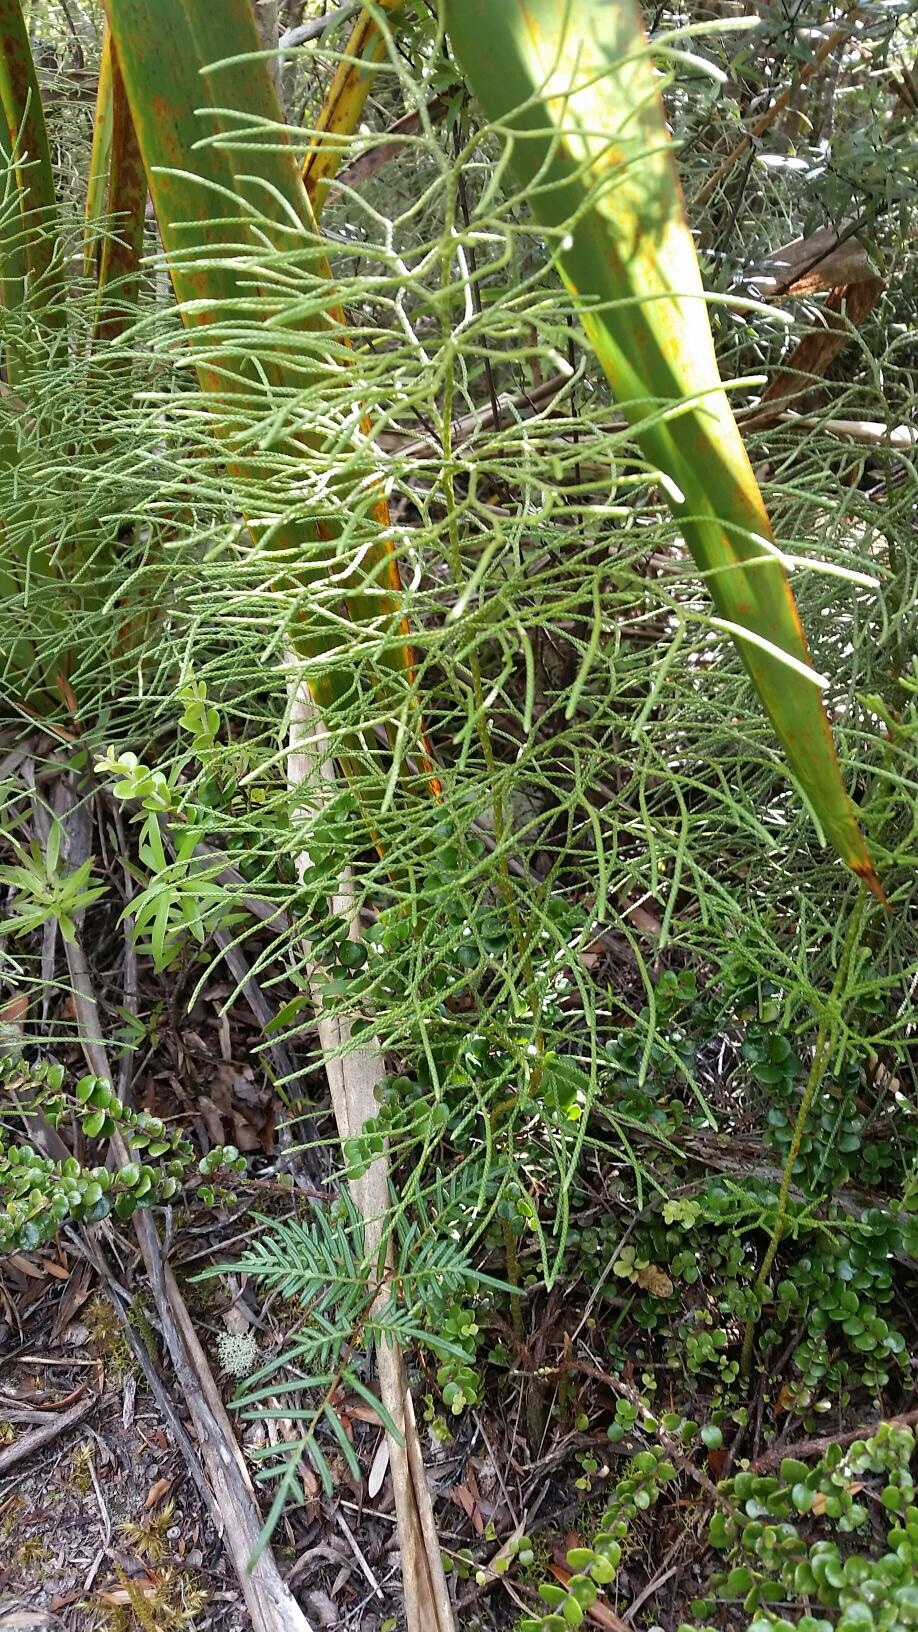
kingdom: Plantae
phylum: Tracheophyta
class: Lycopodiopsida
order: Lycopodiales
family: Lycopodiaceae
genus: Pseudolycopodium
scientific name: Pseudolycopodium densum
